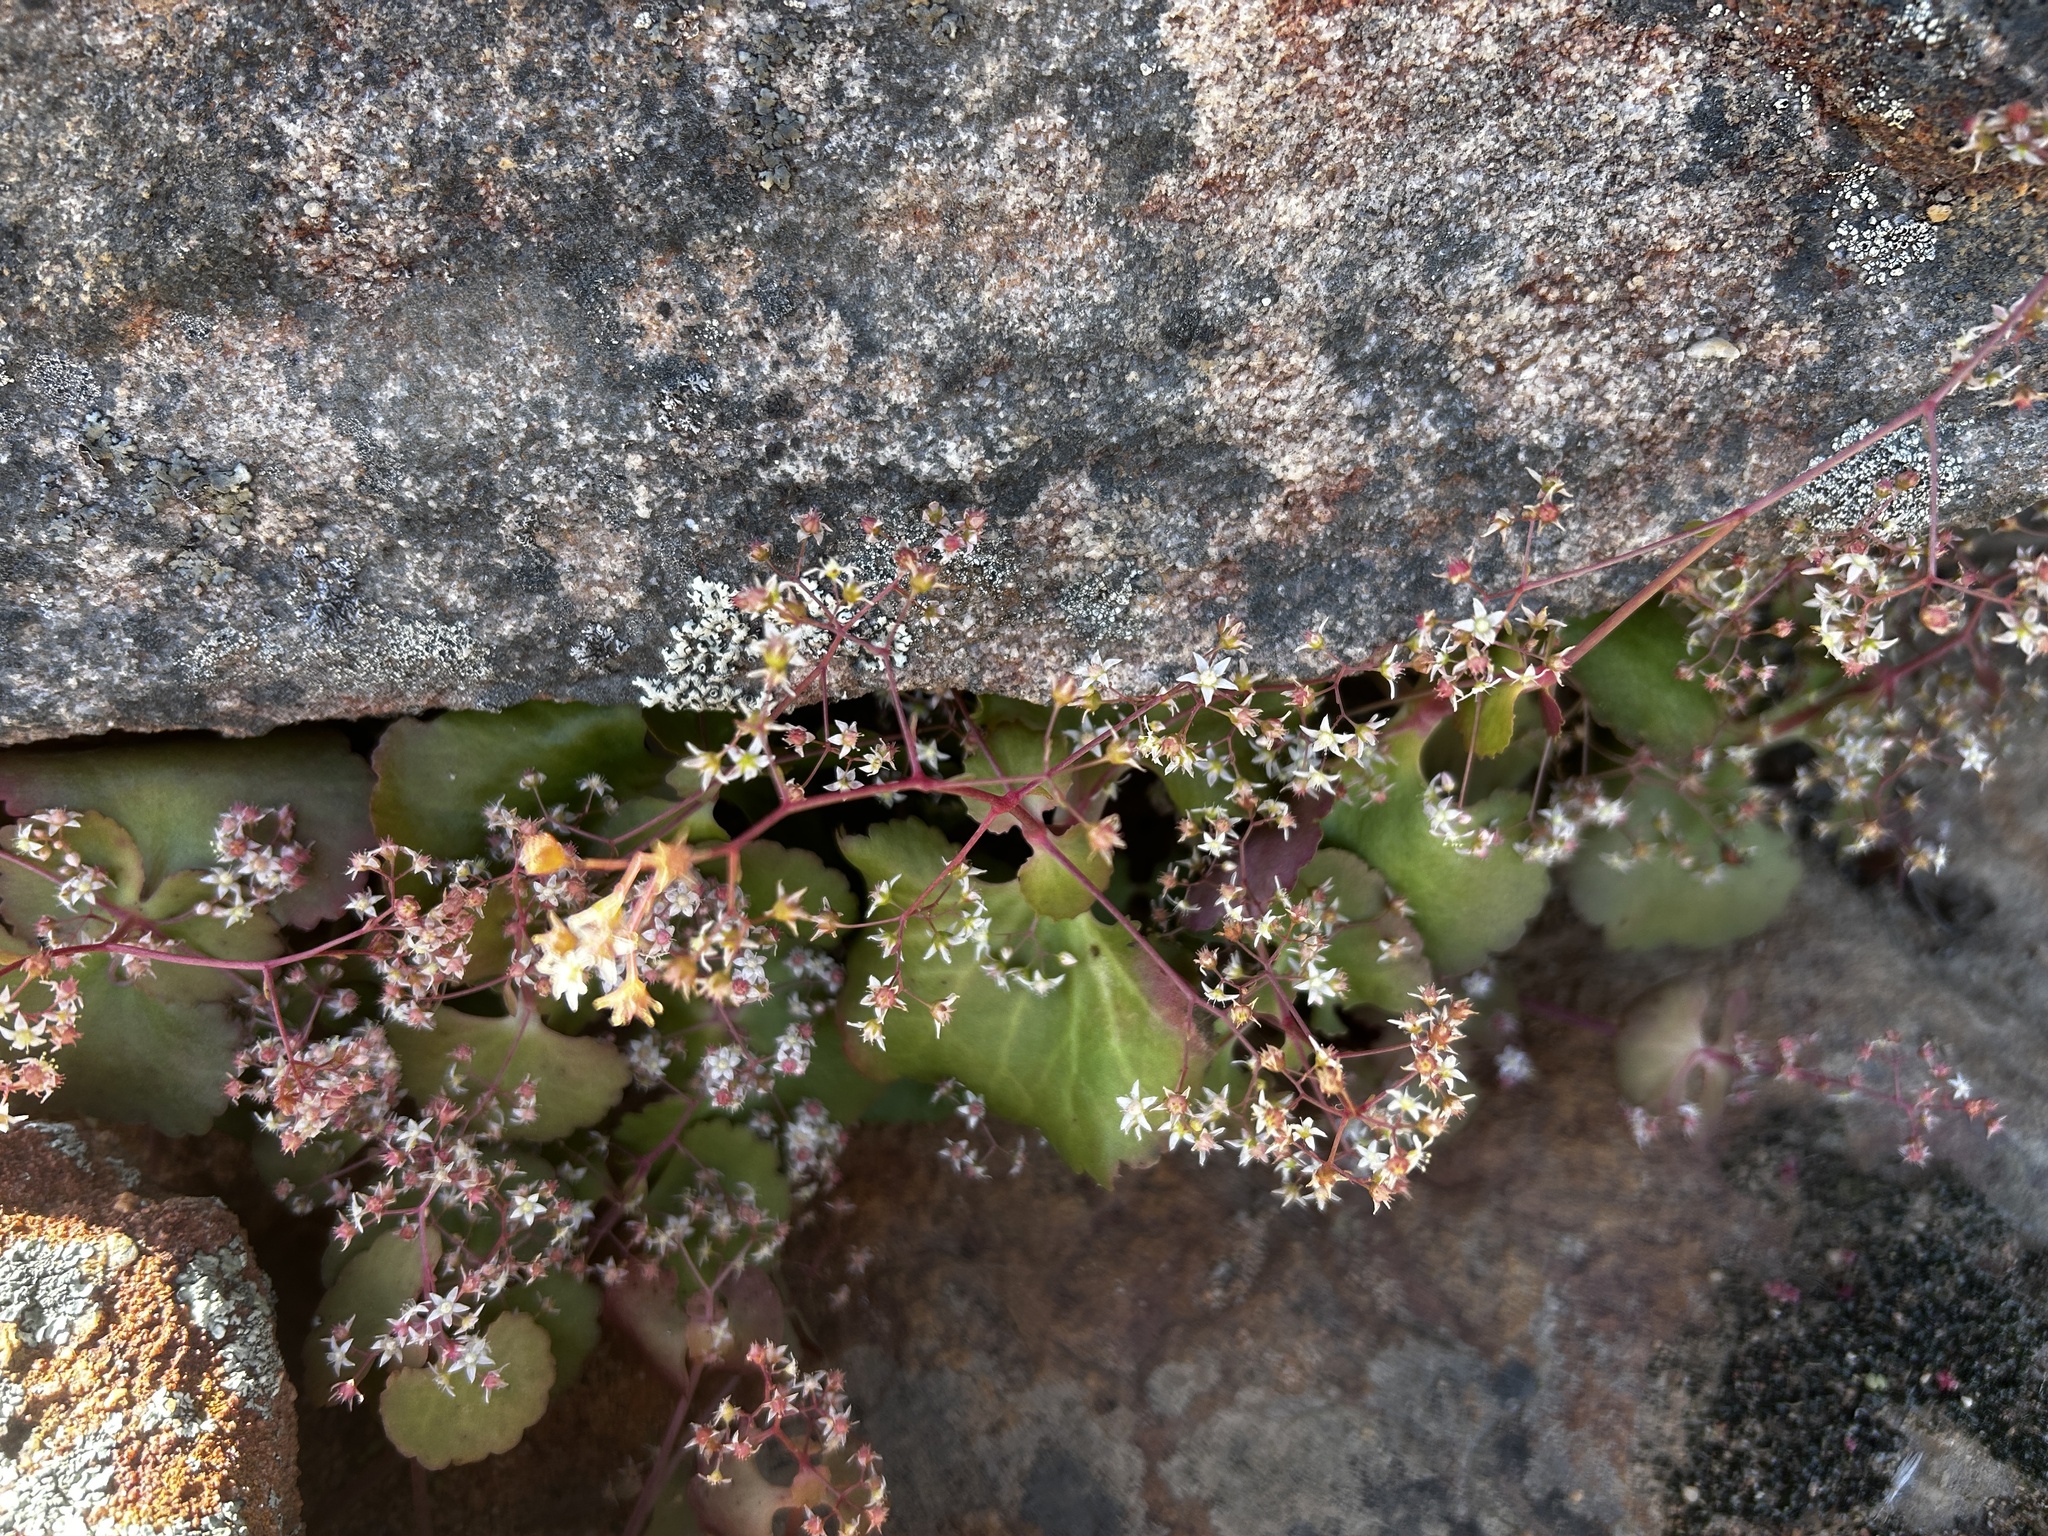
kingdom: Plantae
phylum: Tracheophyta
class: Magnoliopsida
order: Saxifragales
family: Crassulaceae
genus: Crassula
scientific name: Crassula umbella
